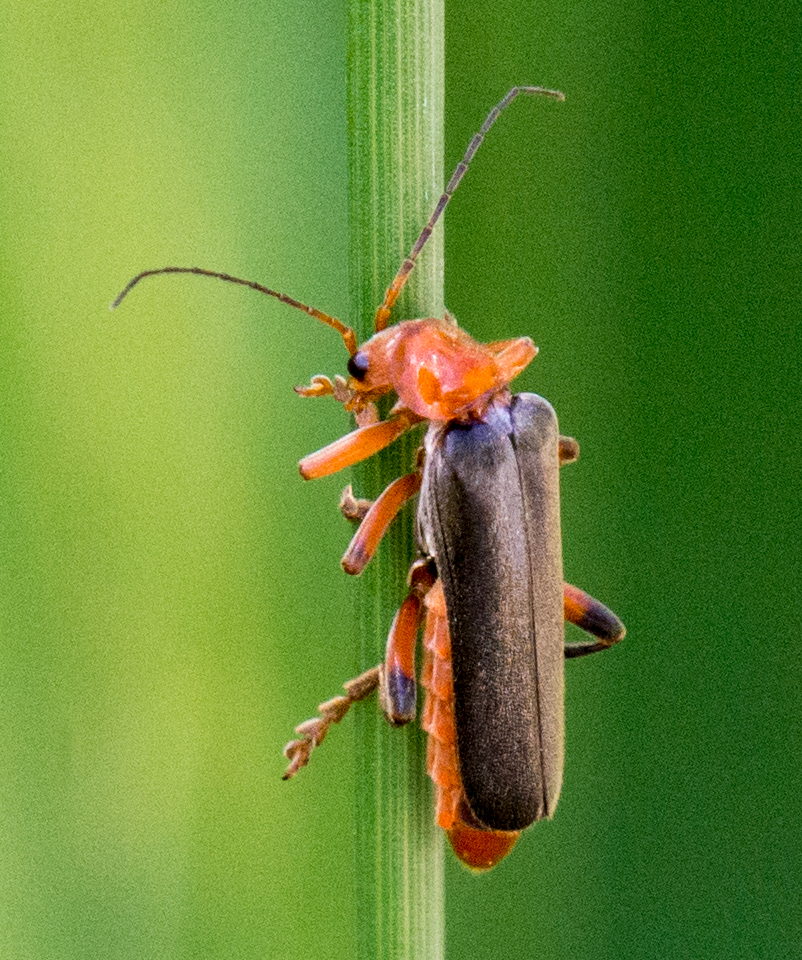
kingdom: Animalia
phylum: Arthropoda
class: Insecta
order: Coleoptera
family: Cantharidae
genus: Cantharis
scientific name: Cantharis livida
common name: Livid soldier beetle
